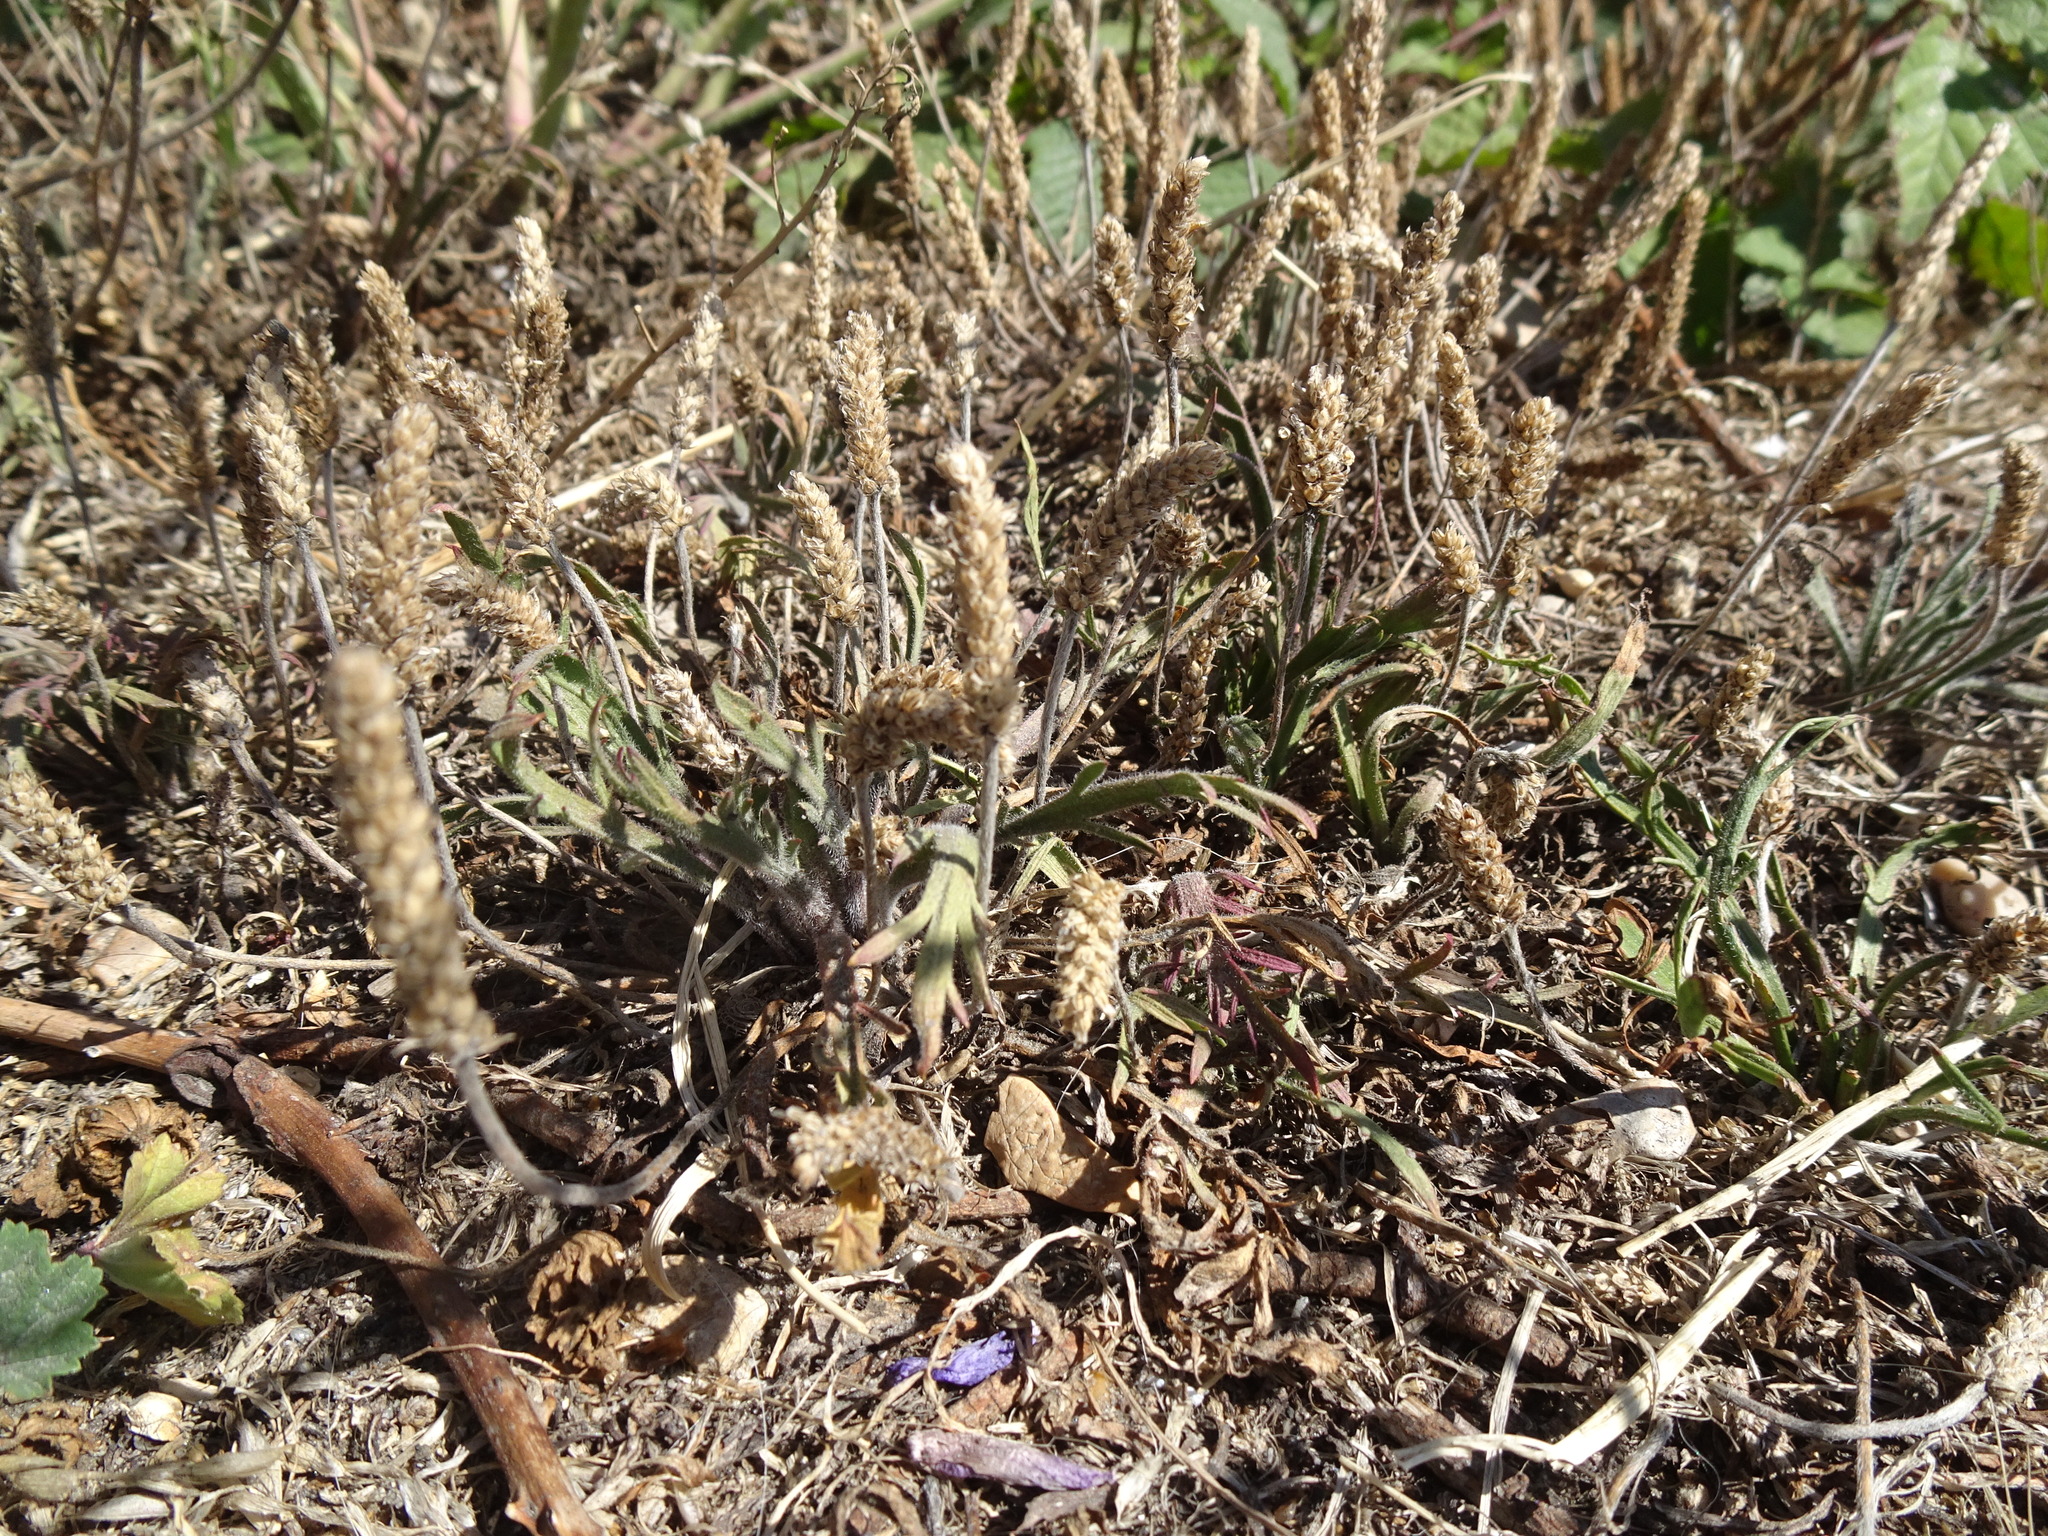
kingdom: Plantae
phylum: Tracheophyta
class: Magnoliopsida
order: Lamiales
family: Plantaginaceae
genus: Plantago
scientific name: Plantago coronopus
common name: Buck's-horn plantain
